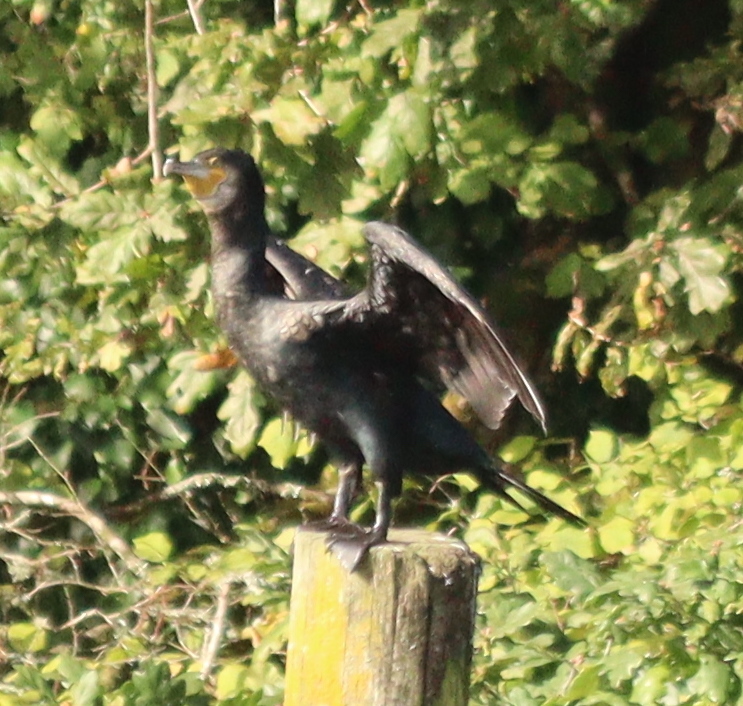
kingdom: Animalia
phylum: Chordata
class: Aves
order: Suliformes
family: Phalacrocoracidae
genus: Phalacrocorax
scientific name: Phalacrocorax carbo
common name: Great cormorant
